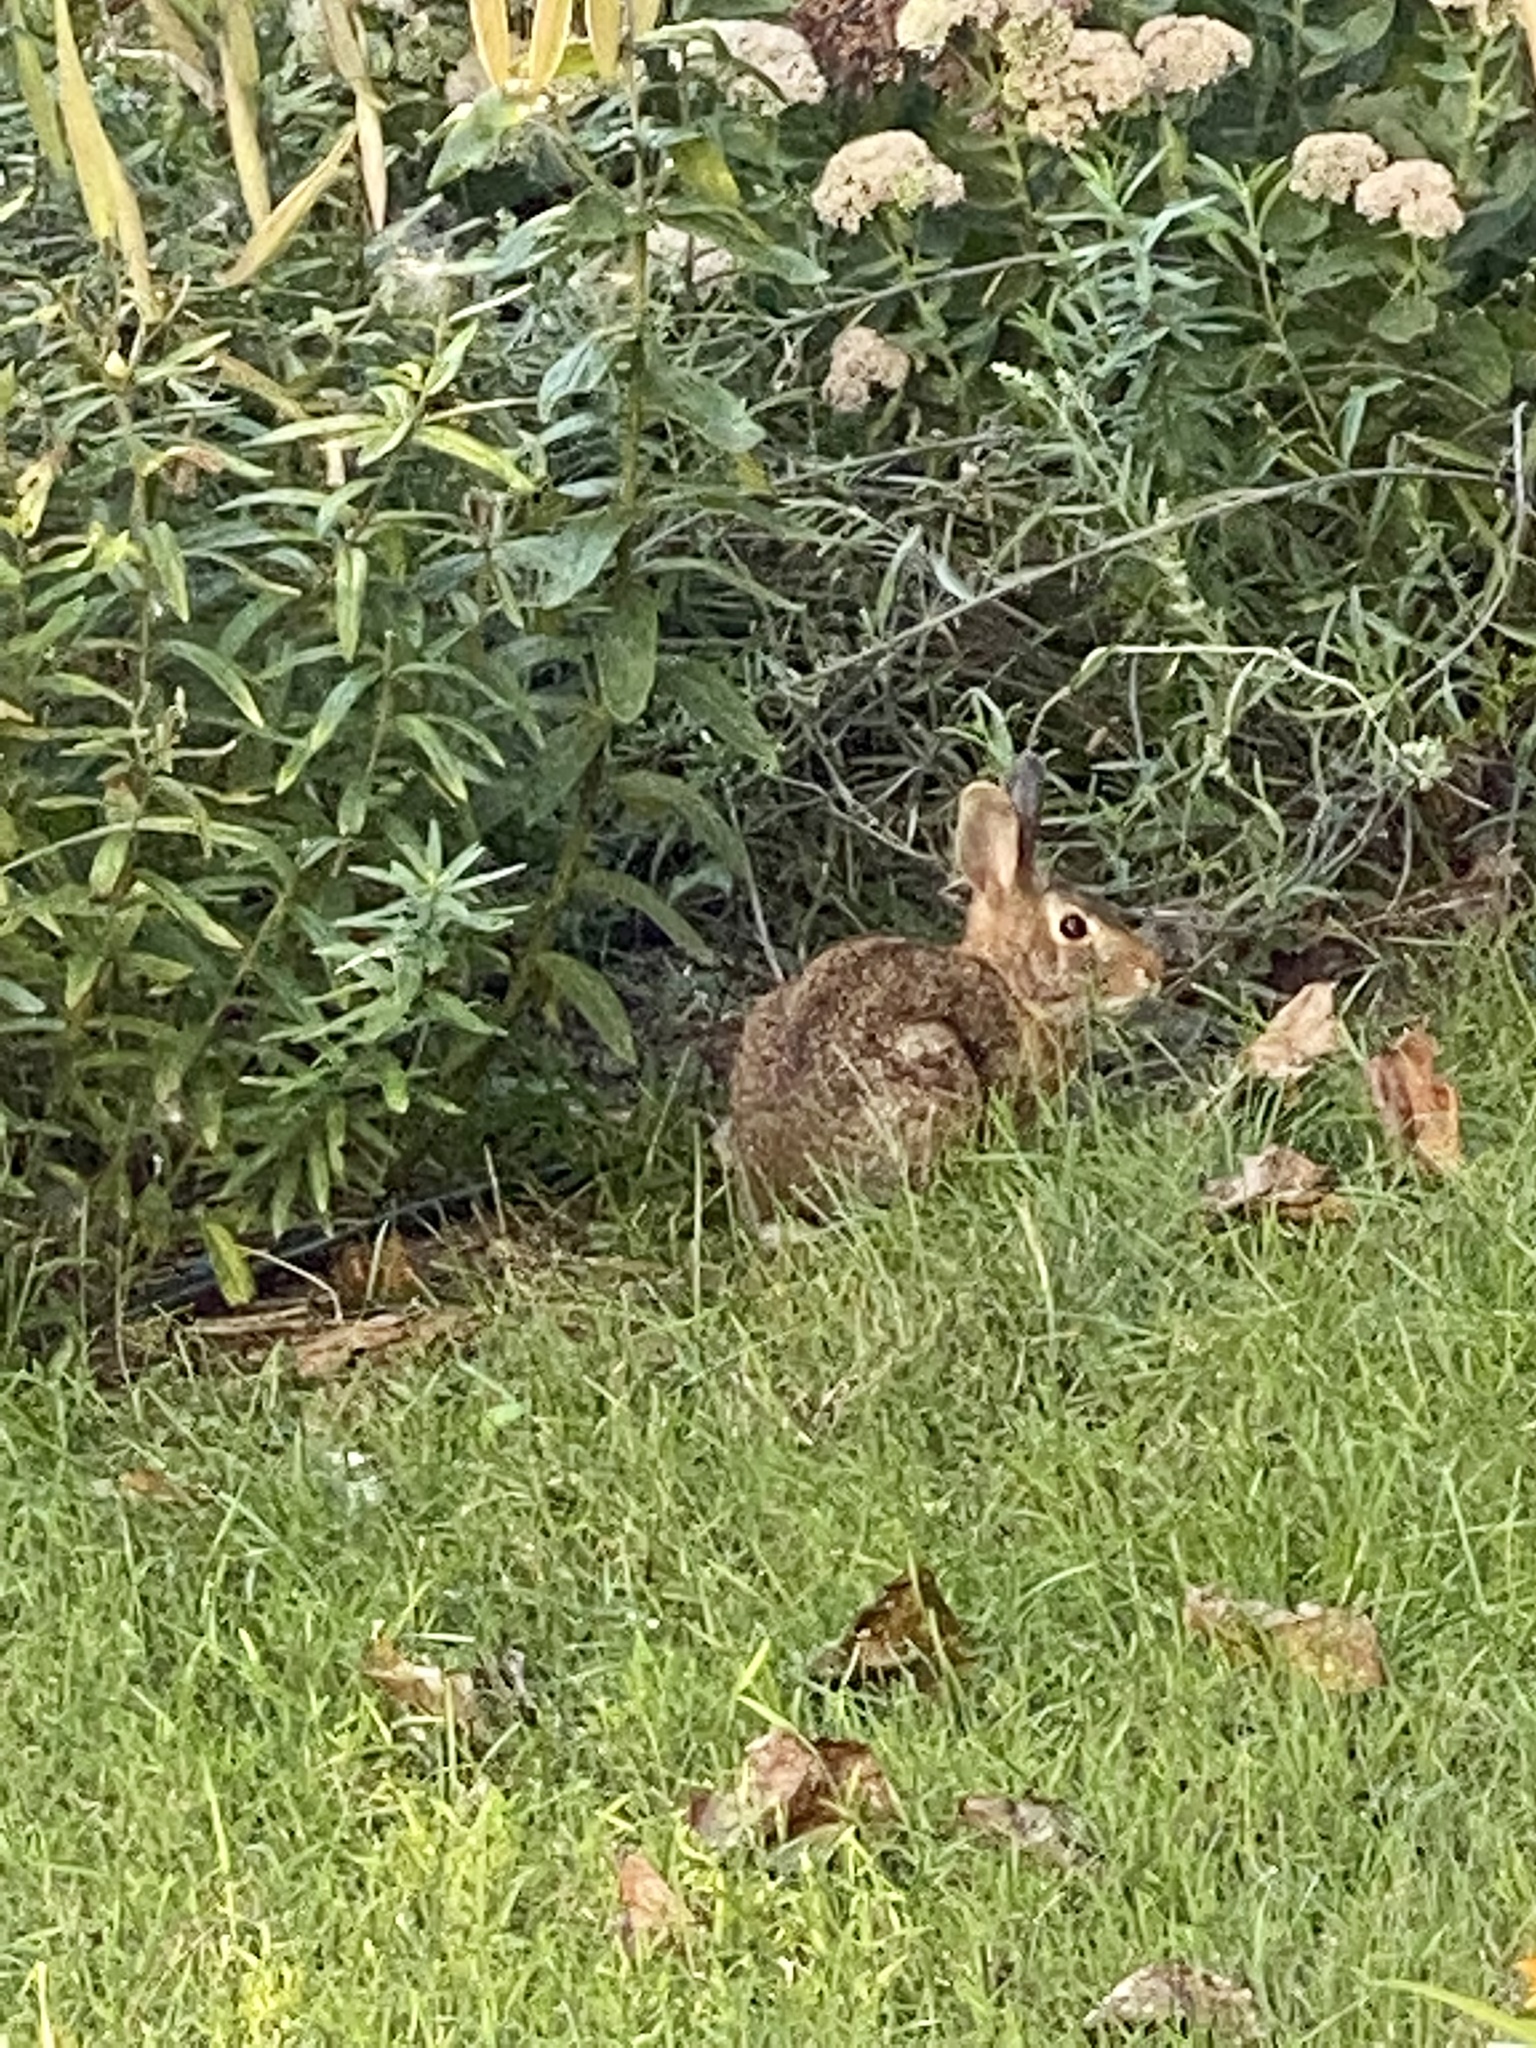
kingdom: Animalia
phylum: Chordata
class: Mammalia
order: Lagomorpha
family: Leporidae
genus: Sylvilagus
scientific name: Sylvilagus floridanus
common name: Eastern cottontail
